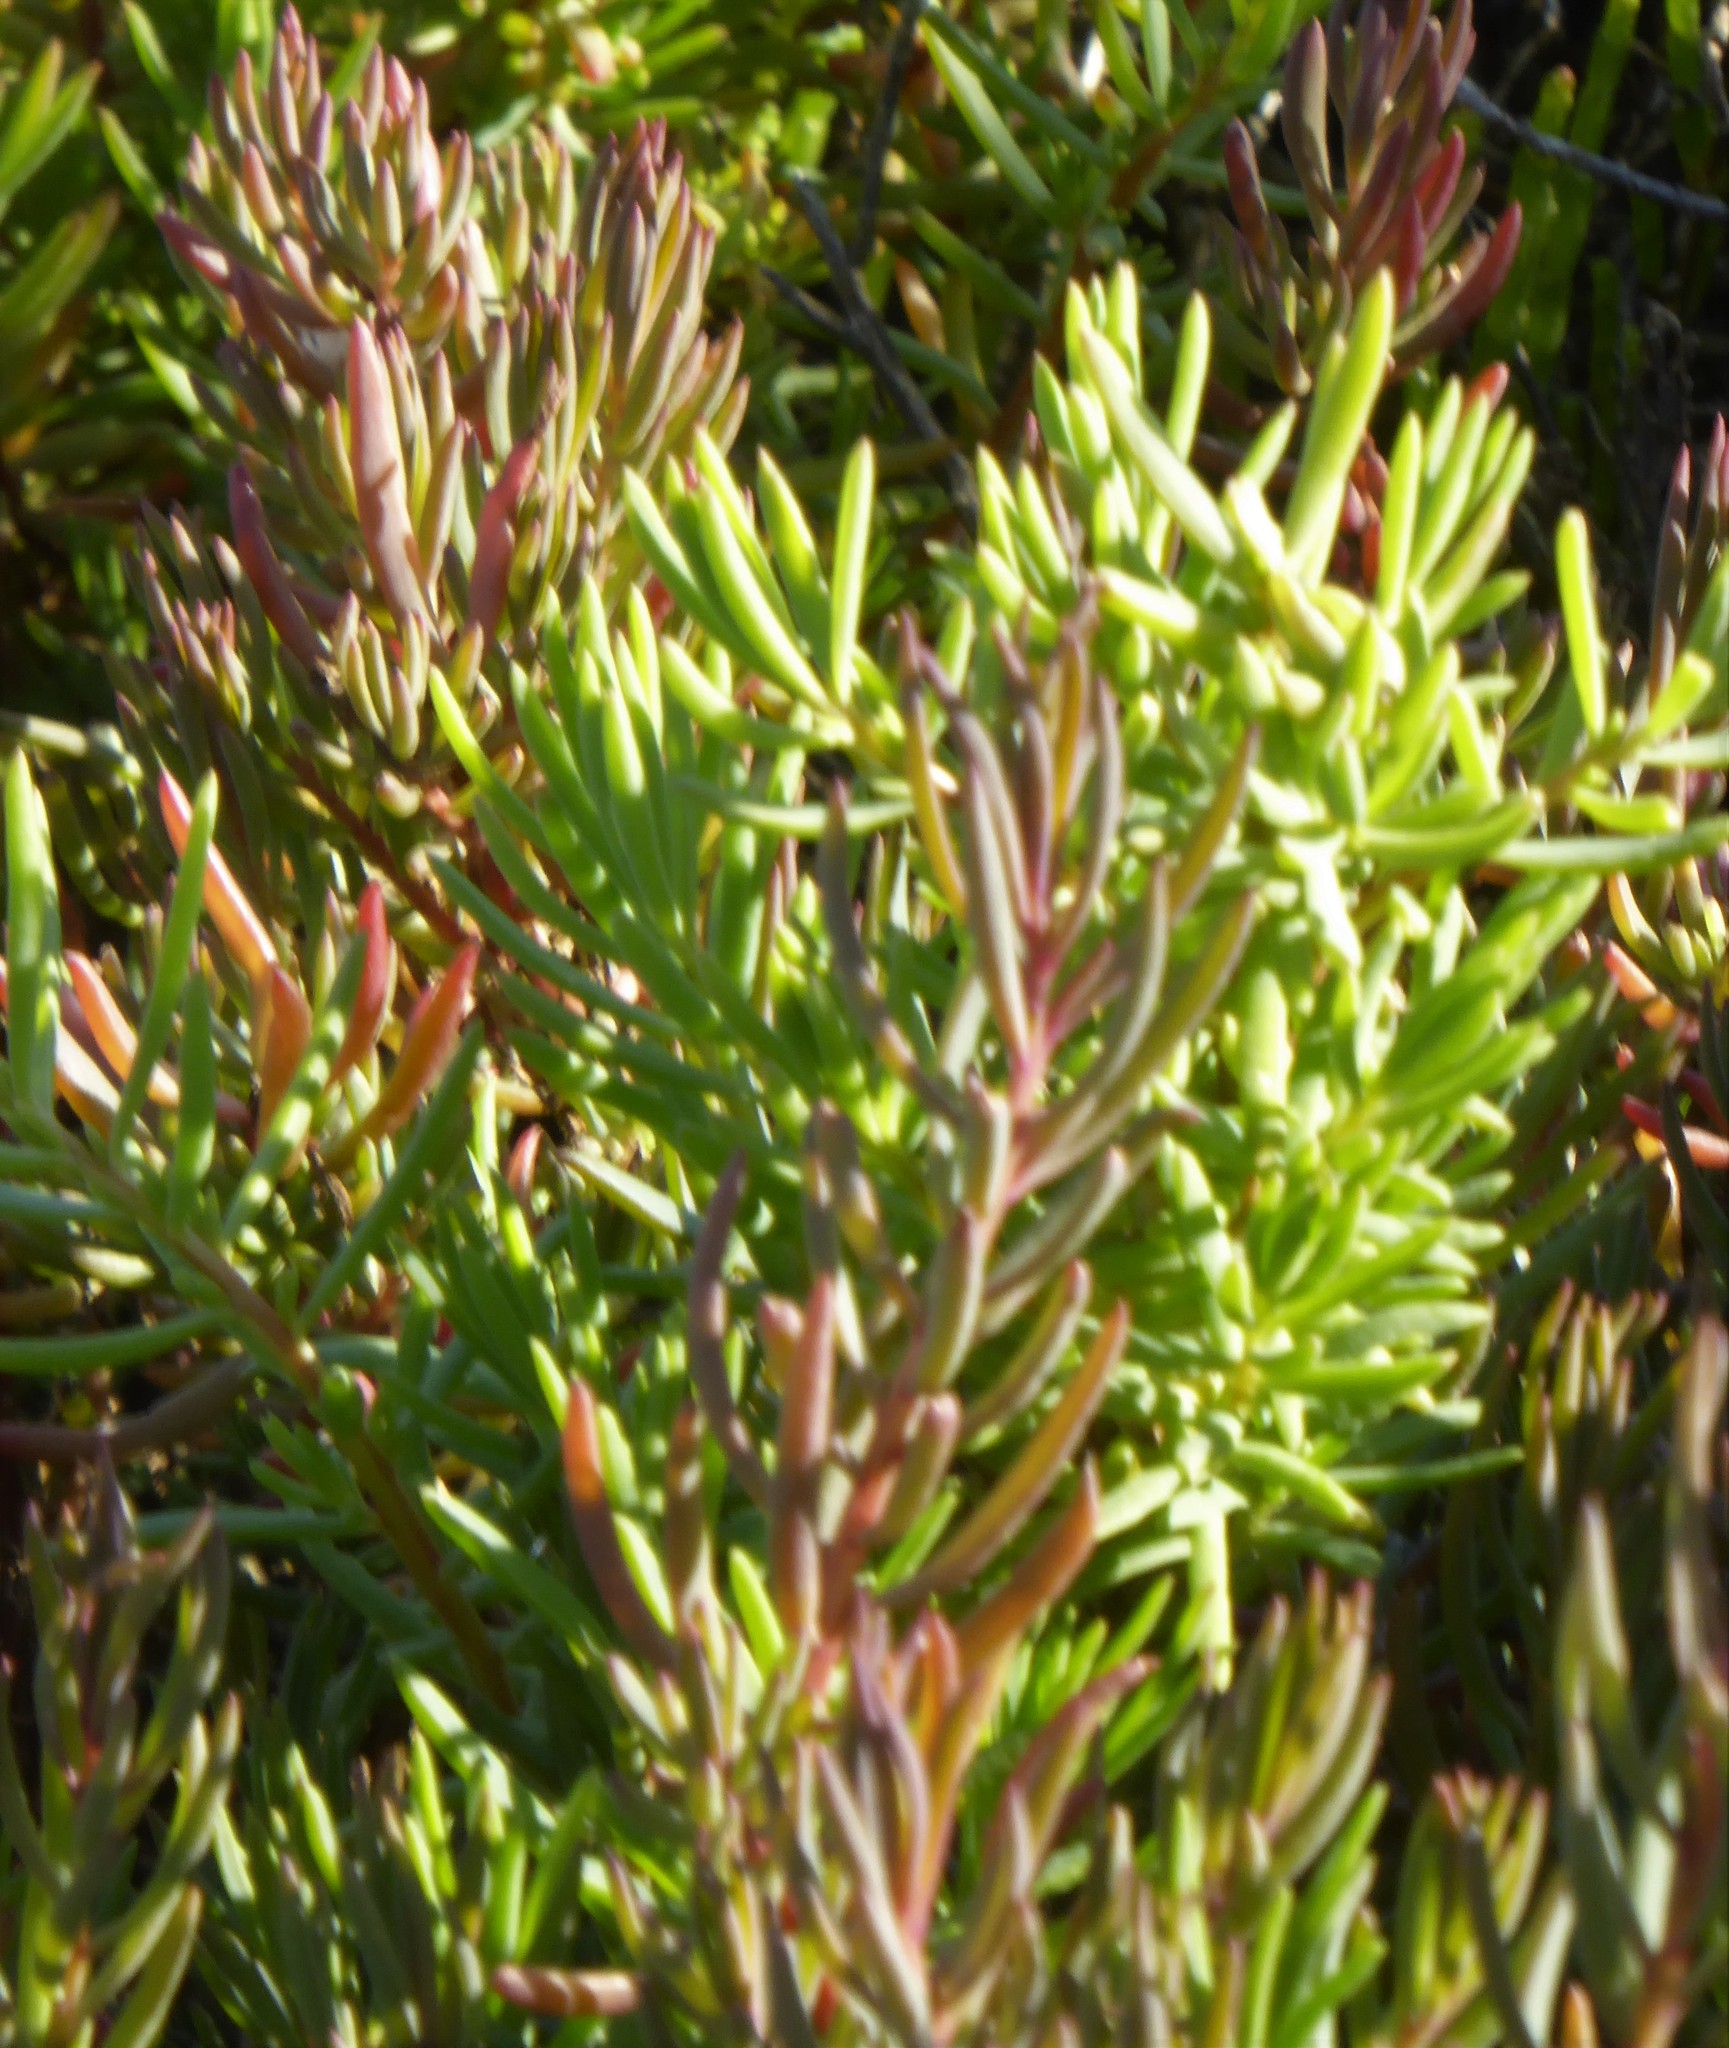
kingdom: Plantae
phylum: Tracheophyta
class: Magnoliopsida
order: Caryophyllales
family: Amaranthaceae
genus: Suaeda
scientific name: Suaeda australis
